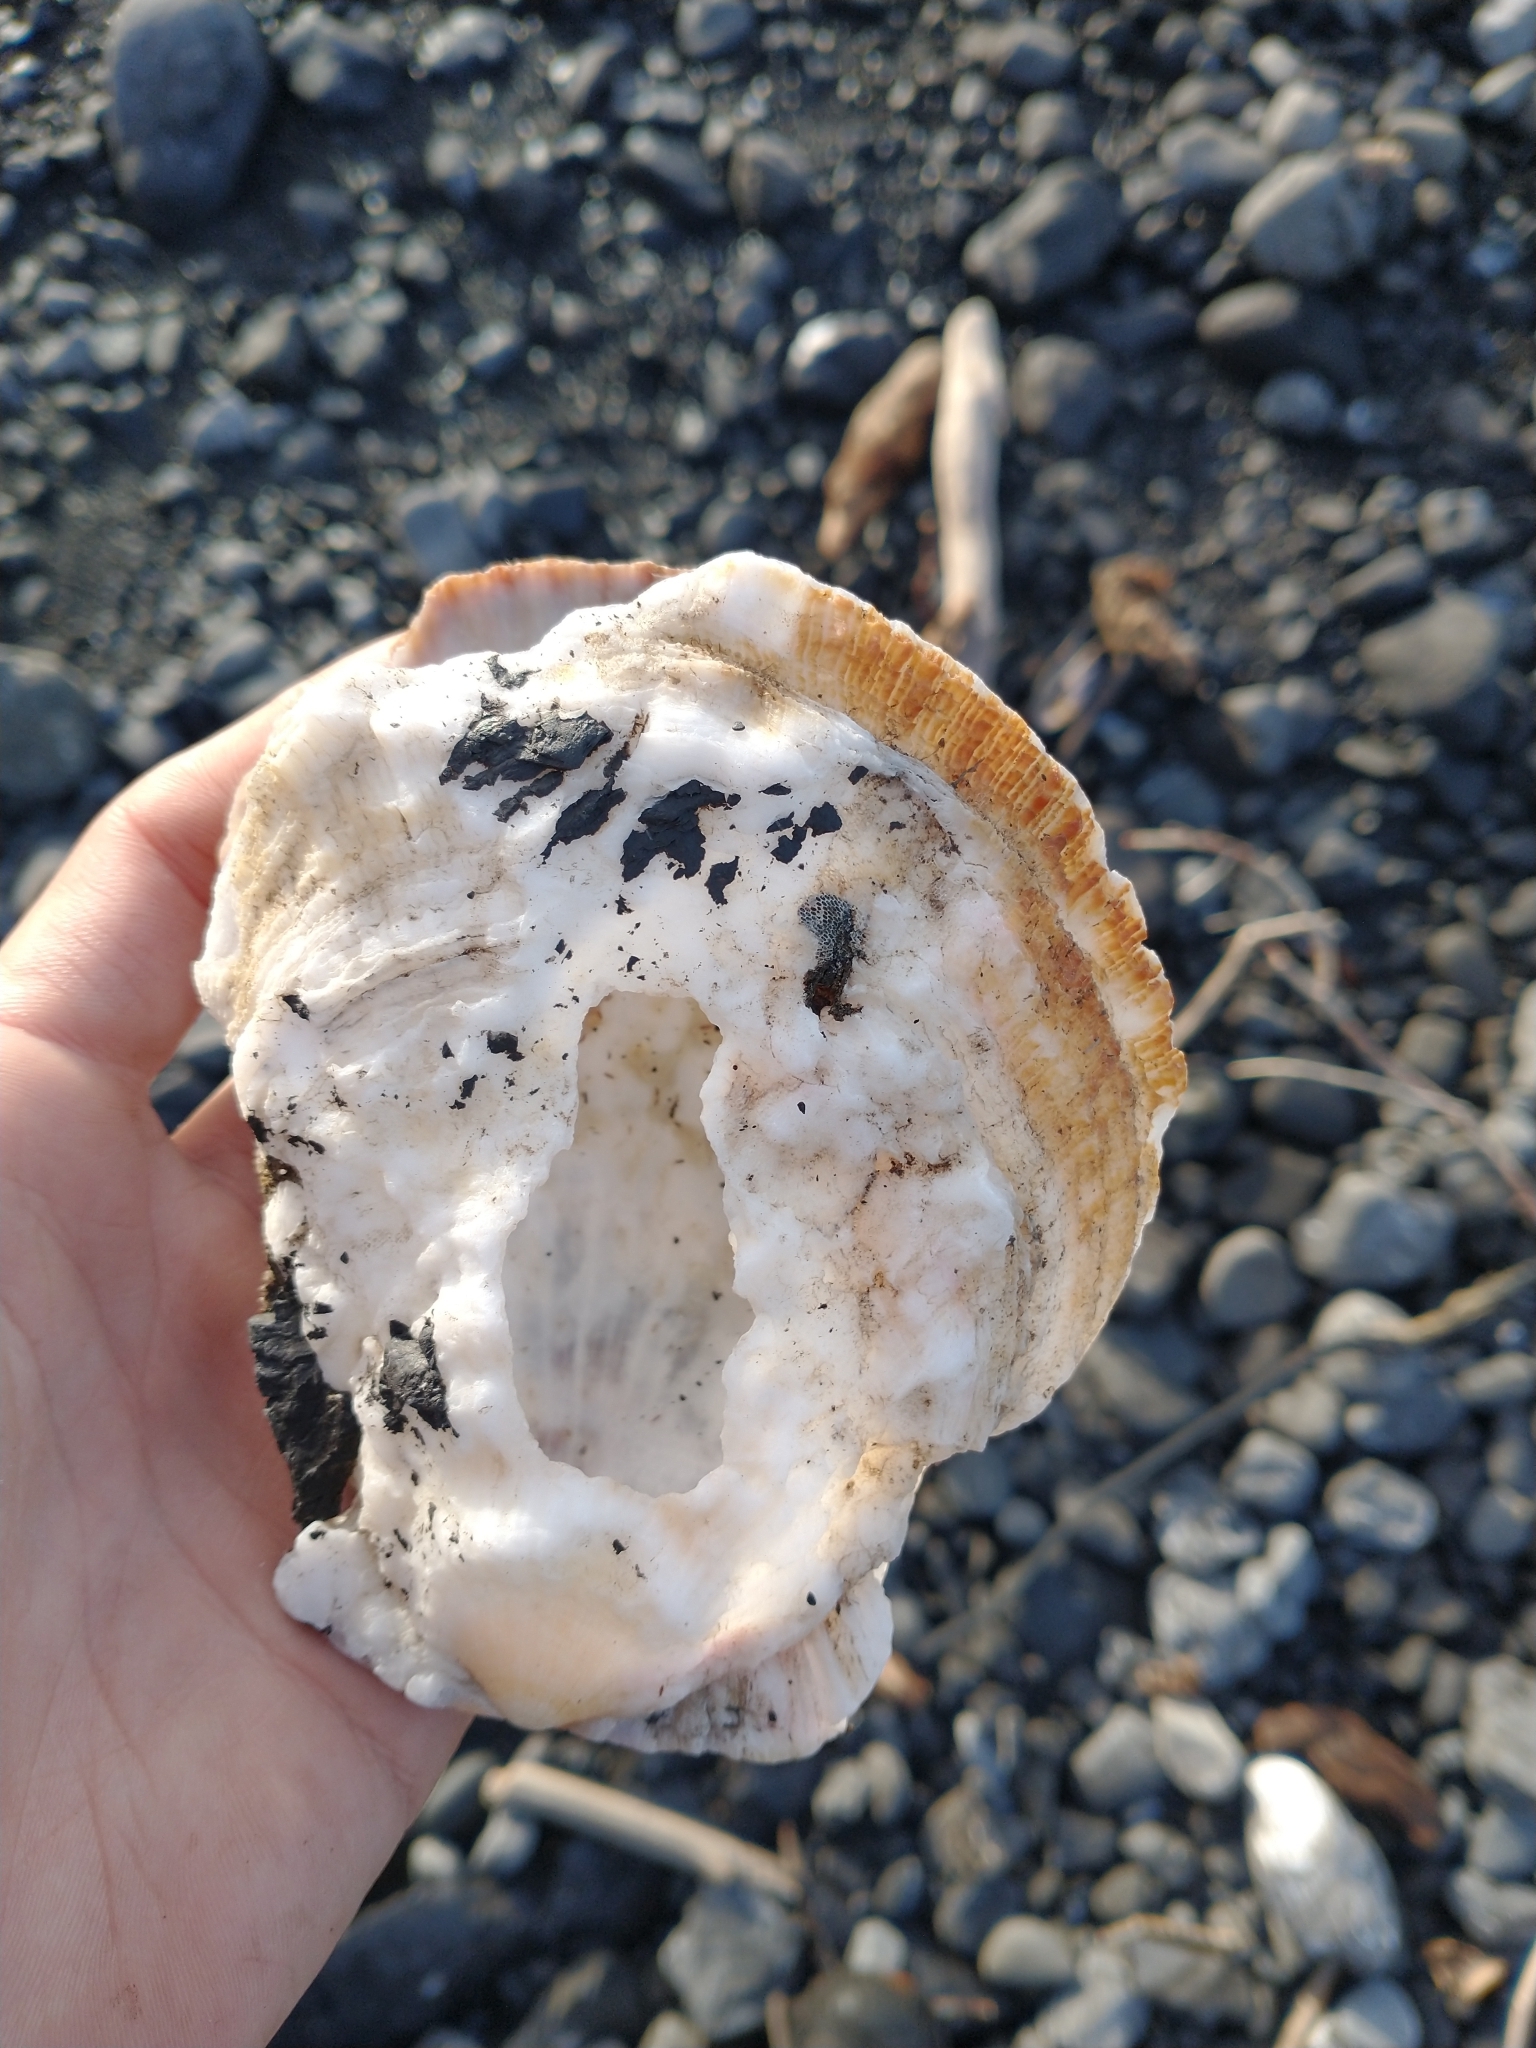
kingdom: Animalia
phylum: Mollusca
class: Bivalvia
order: Pectinida
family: Pectinidae
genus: Crassadoma
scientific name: Crassadoma gigantea
